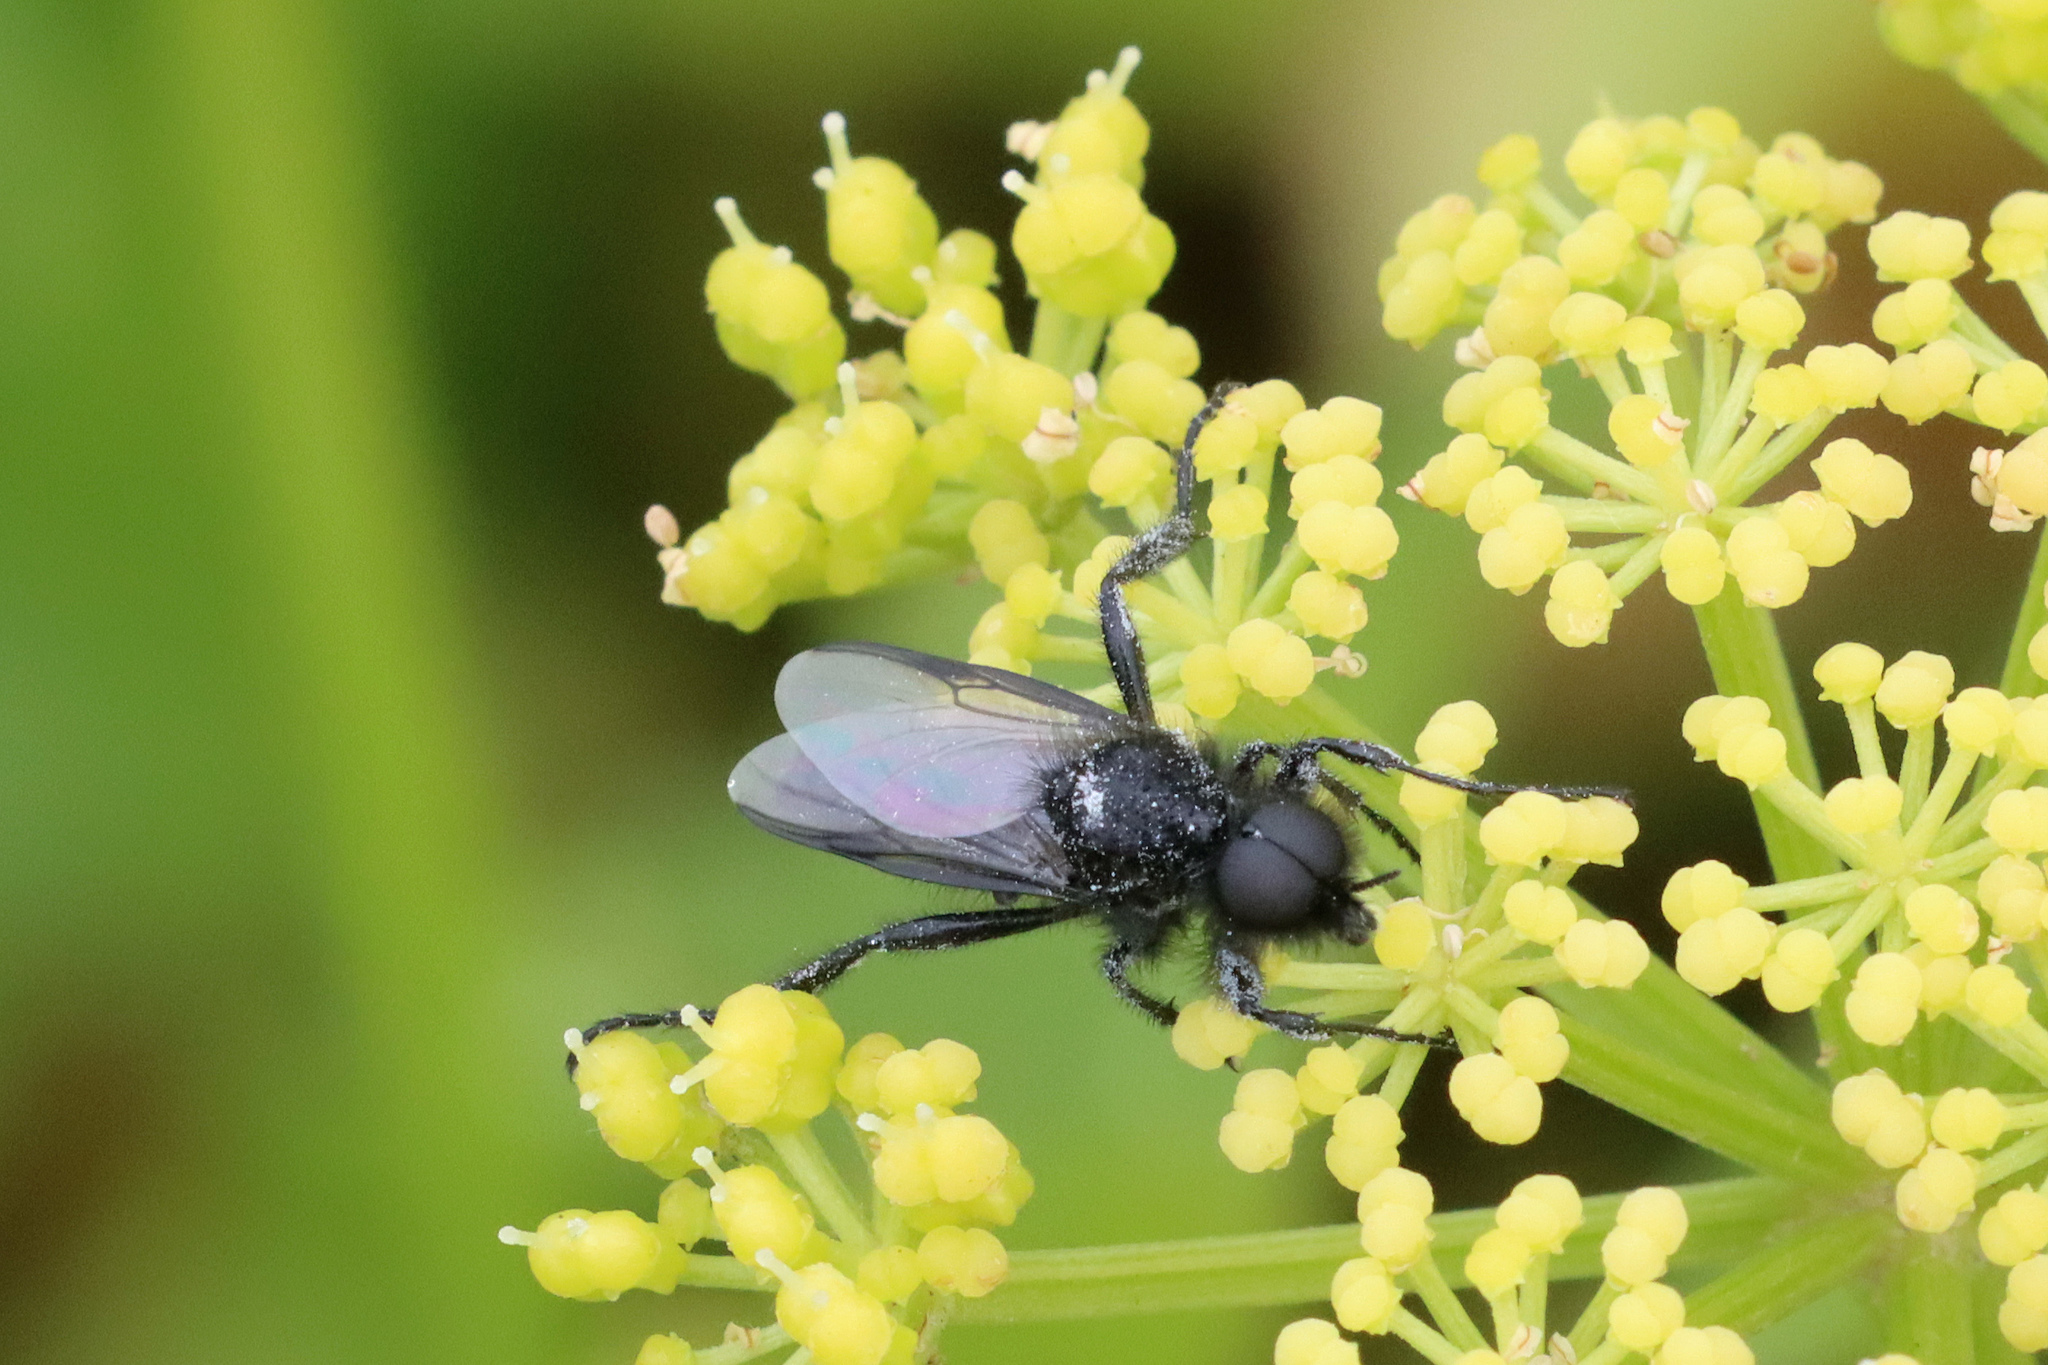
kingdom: Animalia
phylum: Arthropoda
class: Insecta
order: Diptera
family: Bibionidae
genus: Bibio
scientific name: Bibio marci
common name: St marks fly
